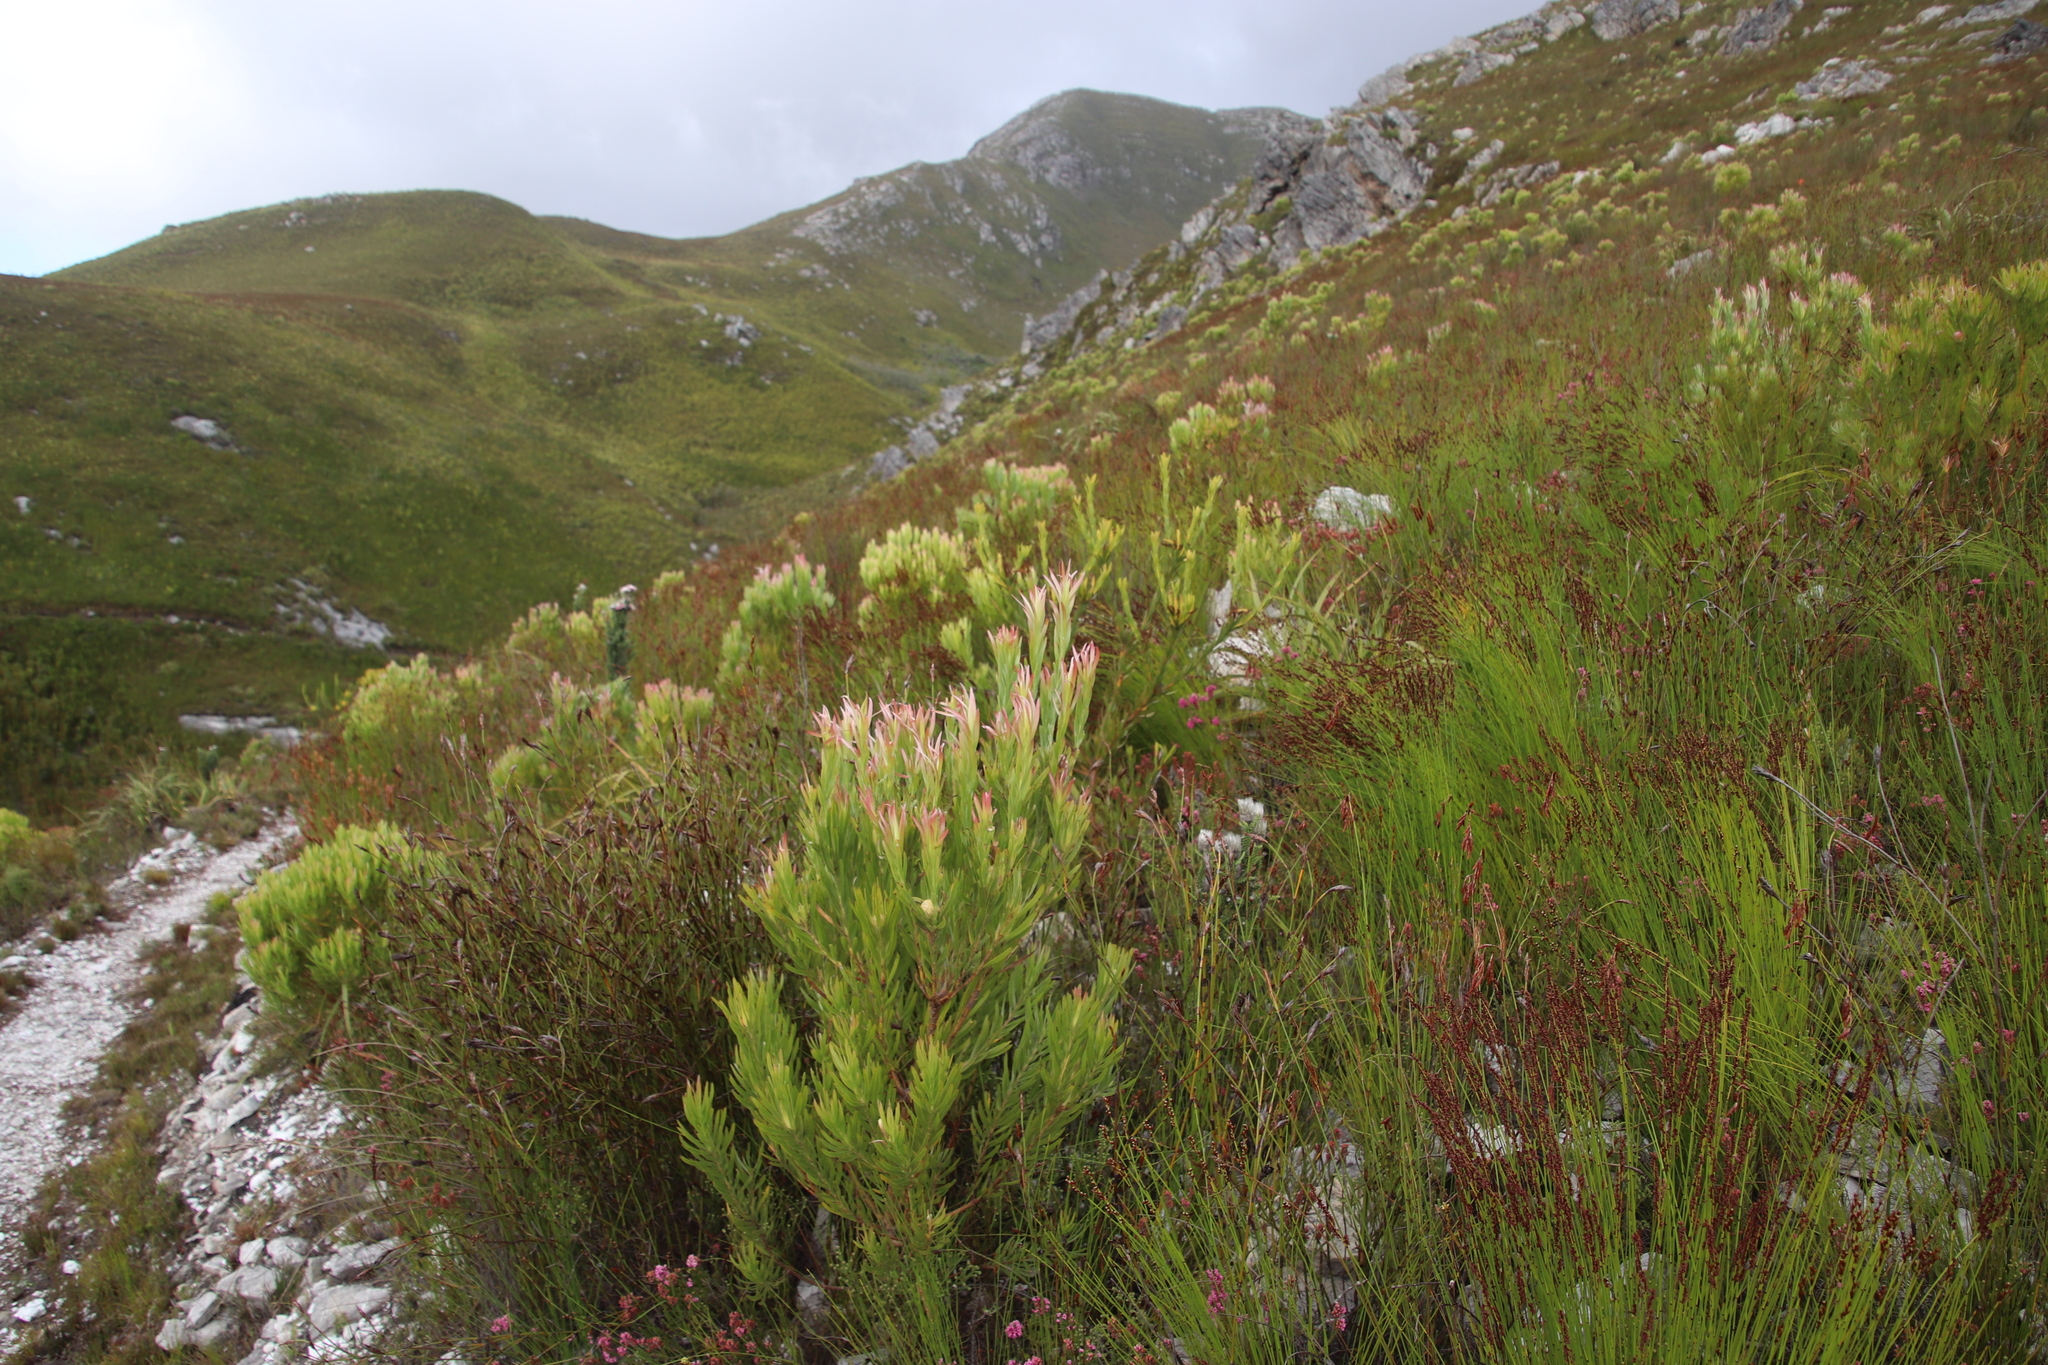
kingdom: Plantae
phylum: Tracheophyta
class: Magnoliopsida
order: Proteales
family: Proteaceae
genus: Leucadendron
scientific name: Leucadendron xanthoconus
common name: Sickle-leaf conebush
